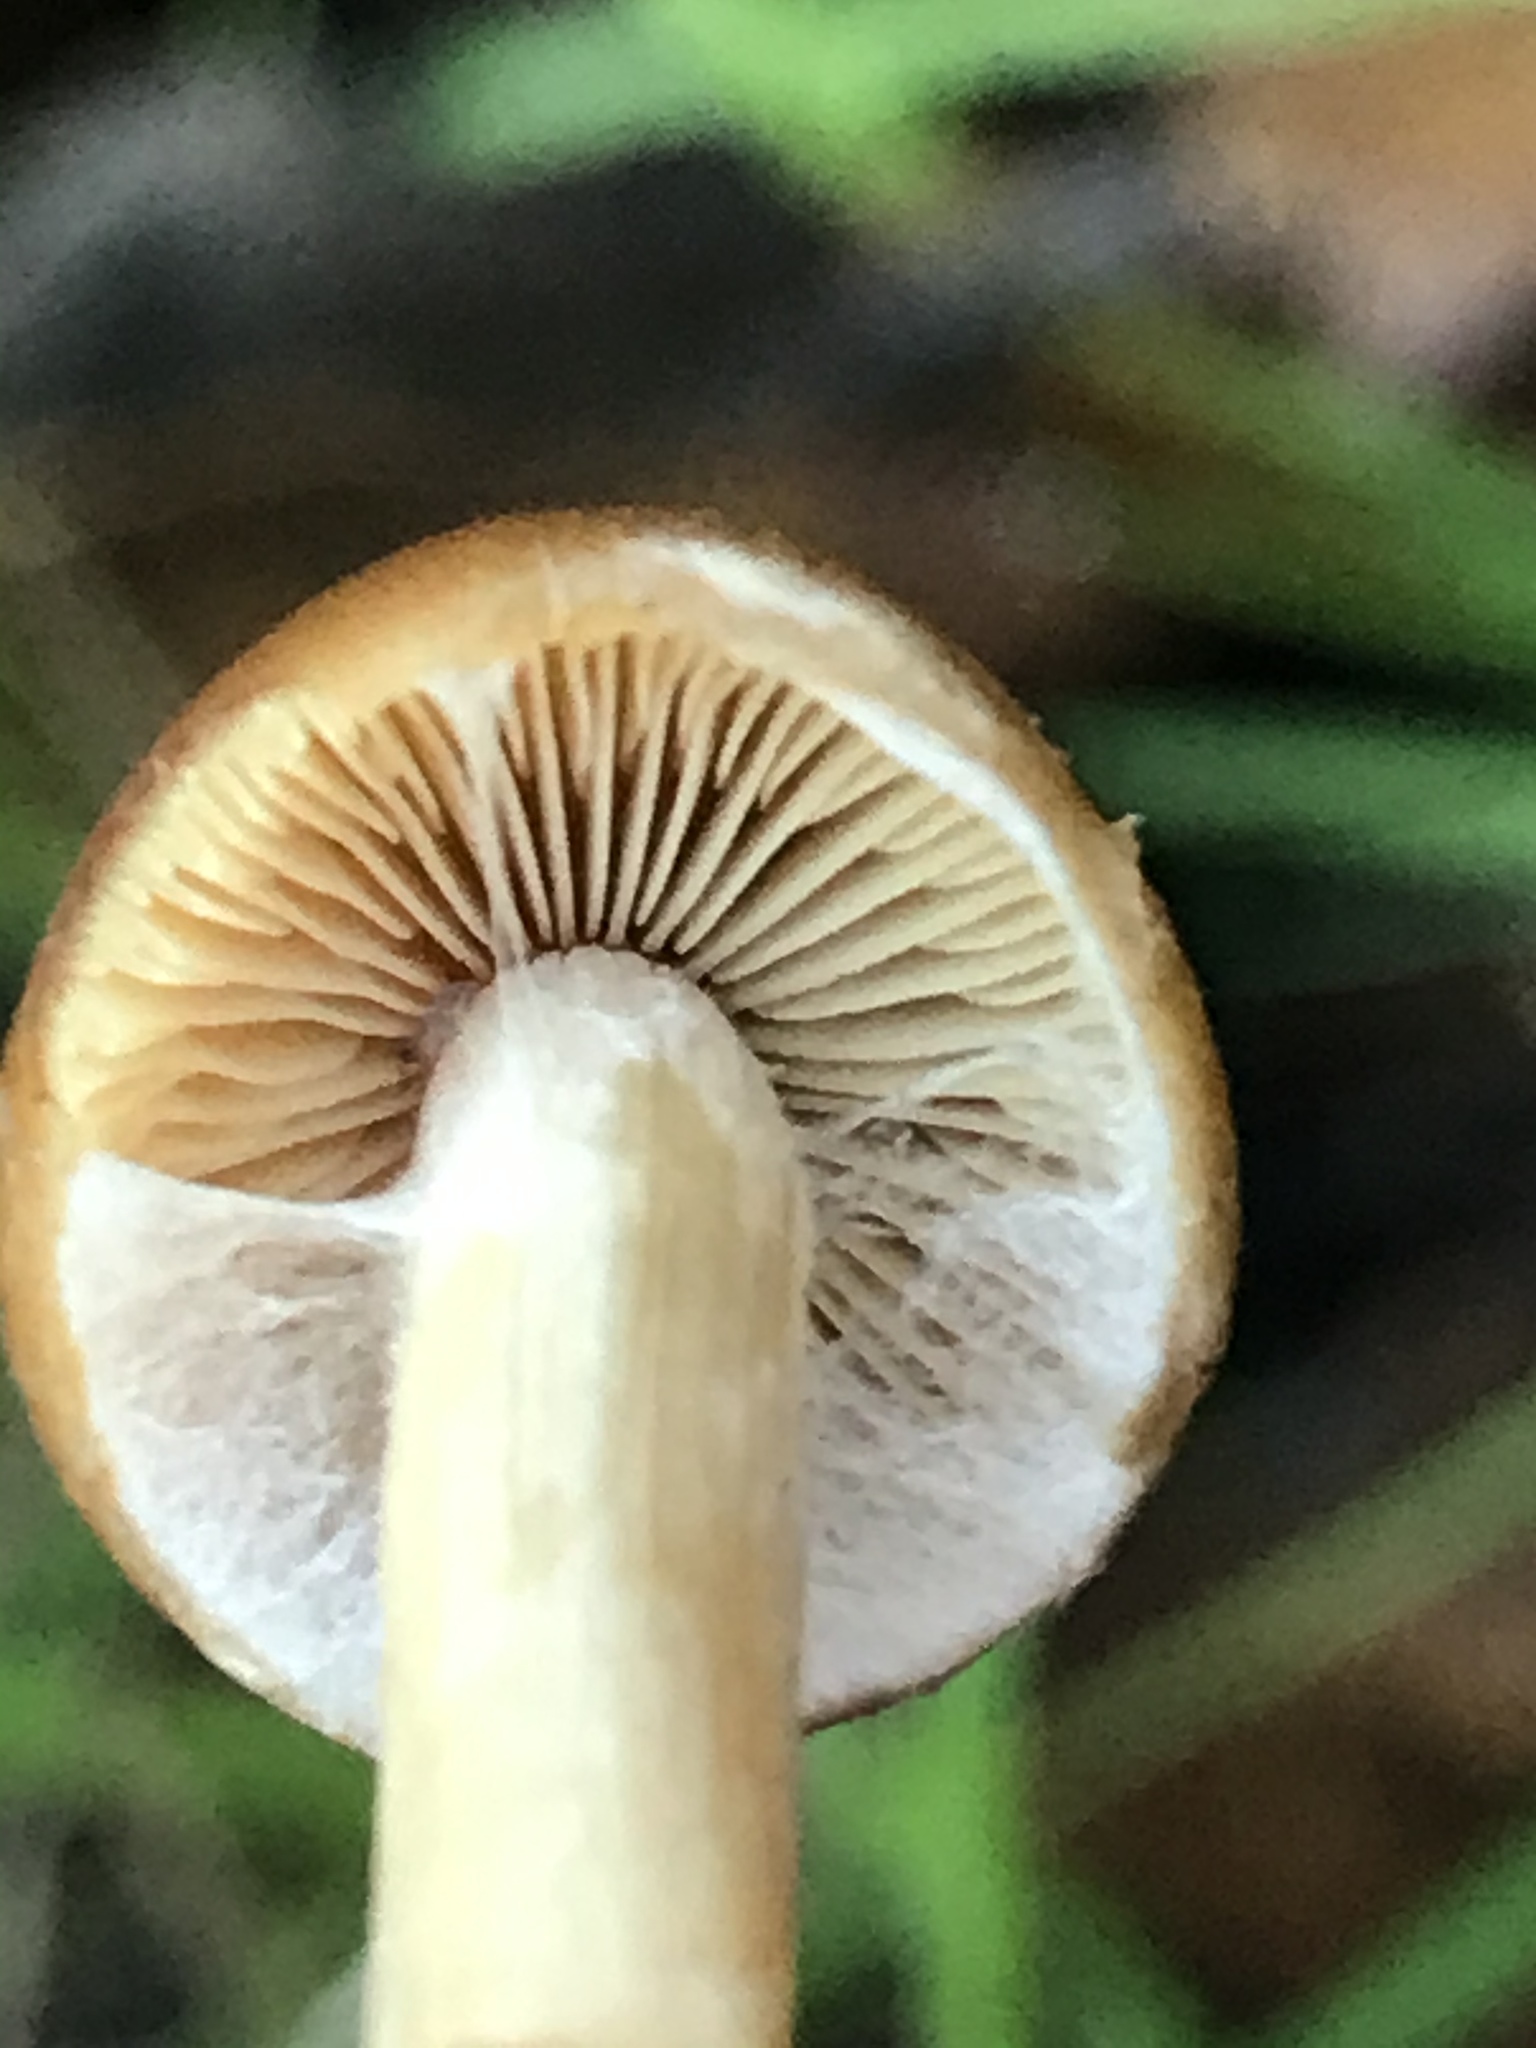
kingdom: Fungi
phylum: Basidiomycota
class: Agaricomycetes
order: Agaricales
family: Psathyrellaceae
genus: Psathyrella
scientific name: Psathyrella piluliformis
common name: Common stump brittlestem
